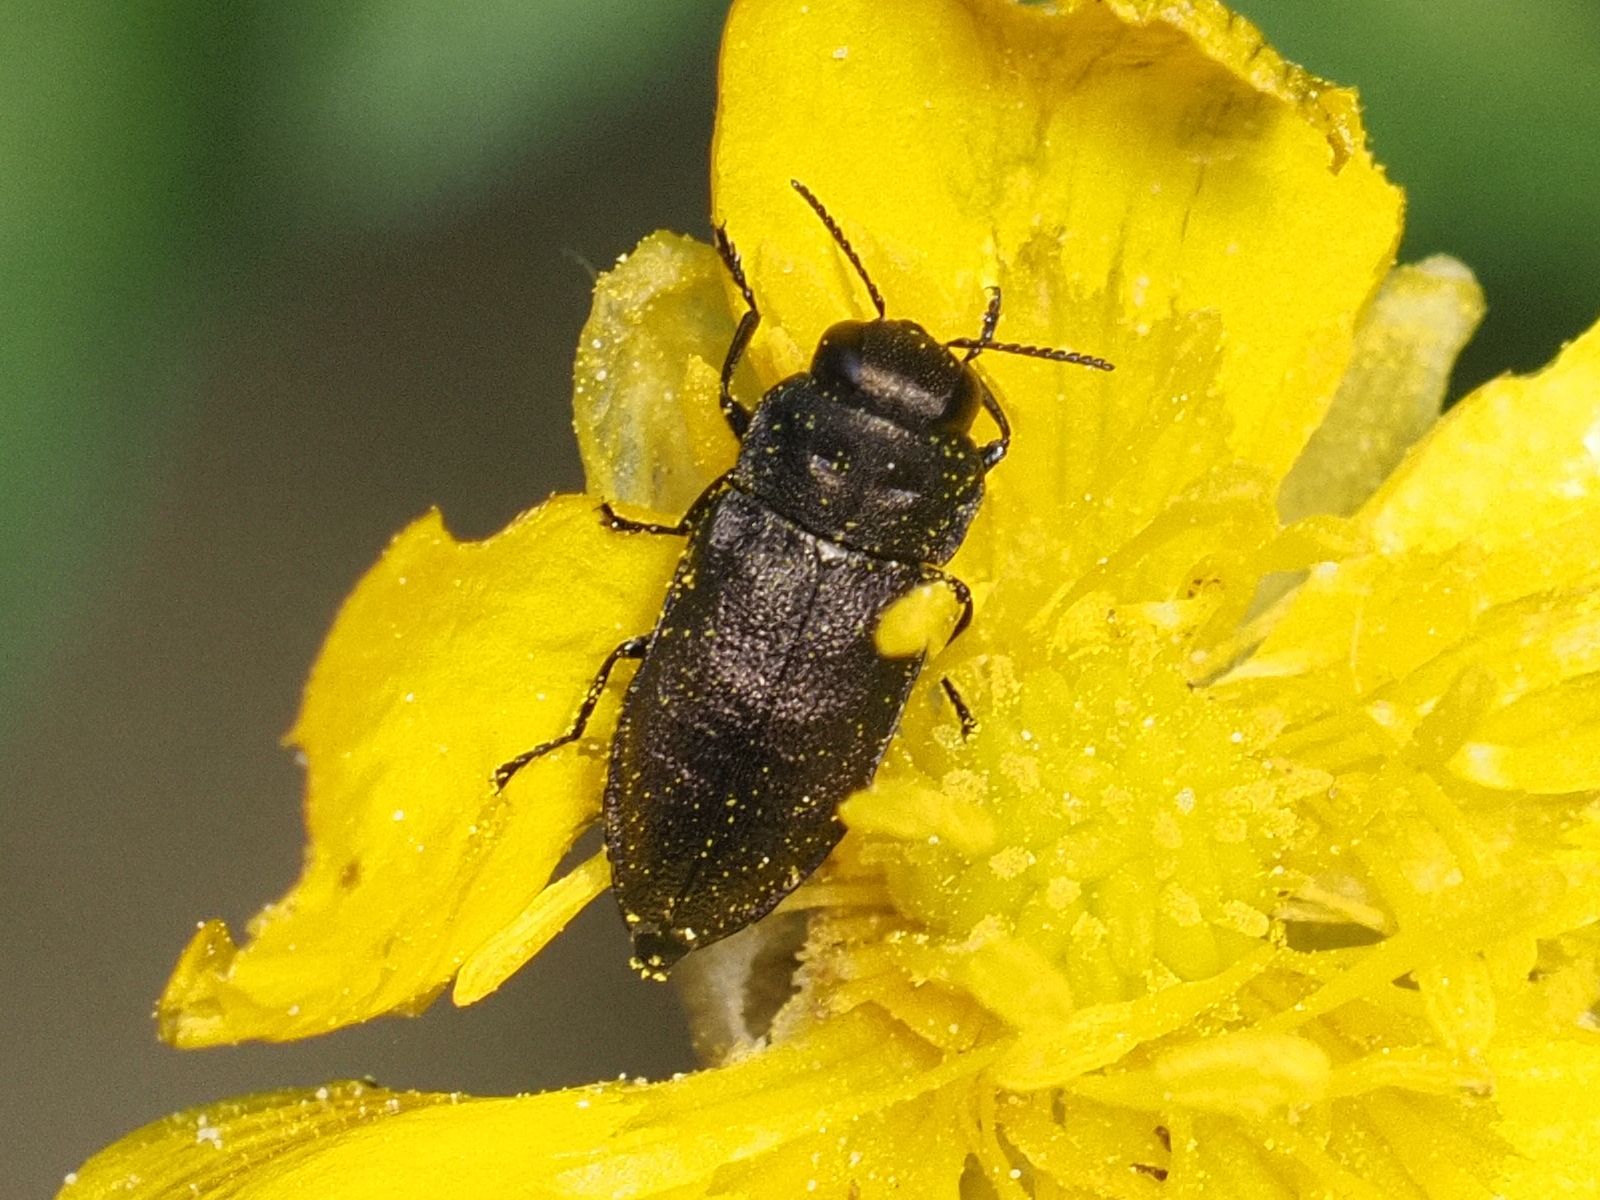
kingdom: Animalia
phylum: Arthropoda
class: Insecta
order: Coleoptera
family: Buprestidae
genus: Anthaxia
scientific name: Anthaxia quadripunctata
